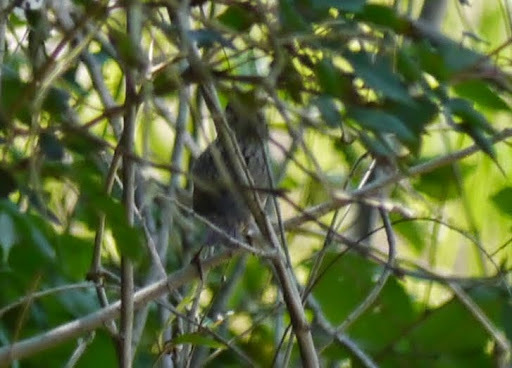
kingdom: Animalia
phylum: Chordata
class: Aves
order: Passeriformes
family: Passerellidae
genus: Melospiza
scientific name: Melospiza lincolnii
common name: Lincoln's sparrow
